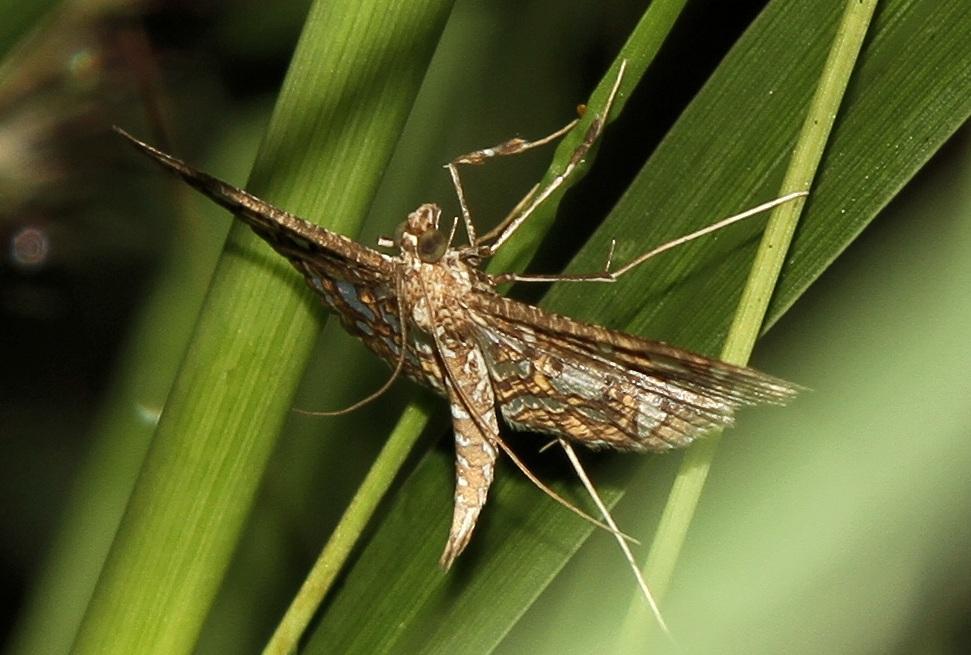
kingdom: Animalia
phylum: Arthropoda
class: Insecta
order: Lepidoptera
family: Crambidae
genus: Nausinoe
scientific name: Nausinoe geometralis
